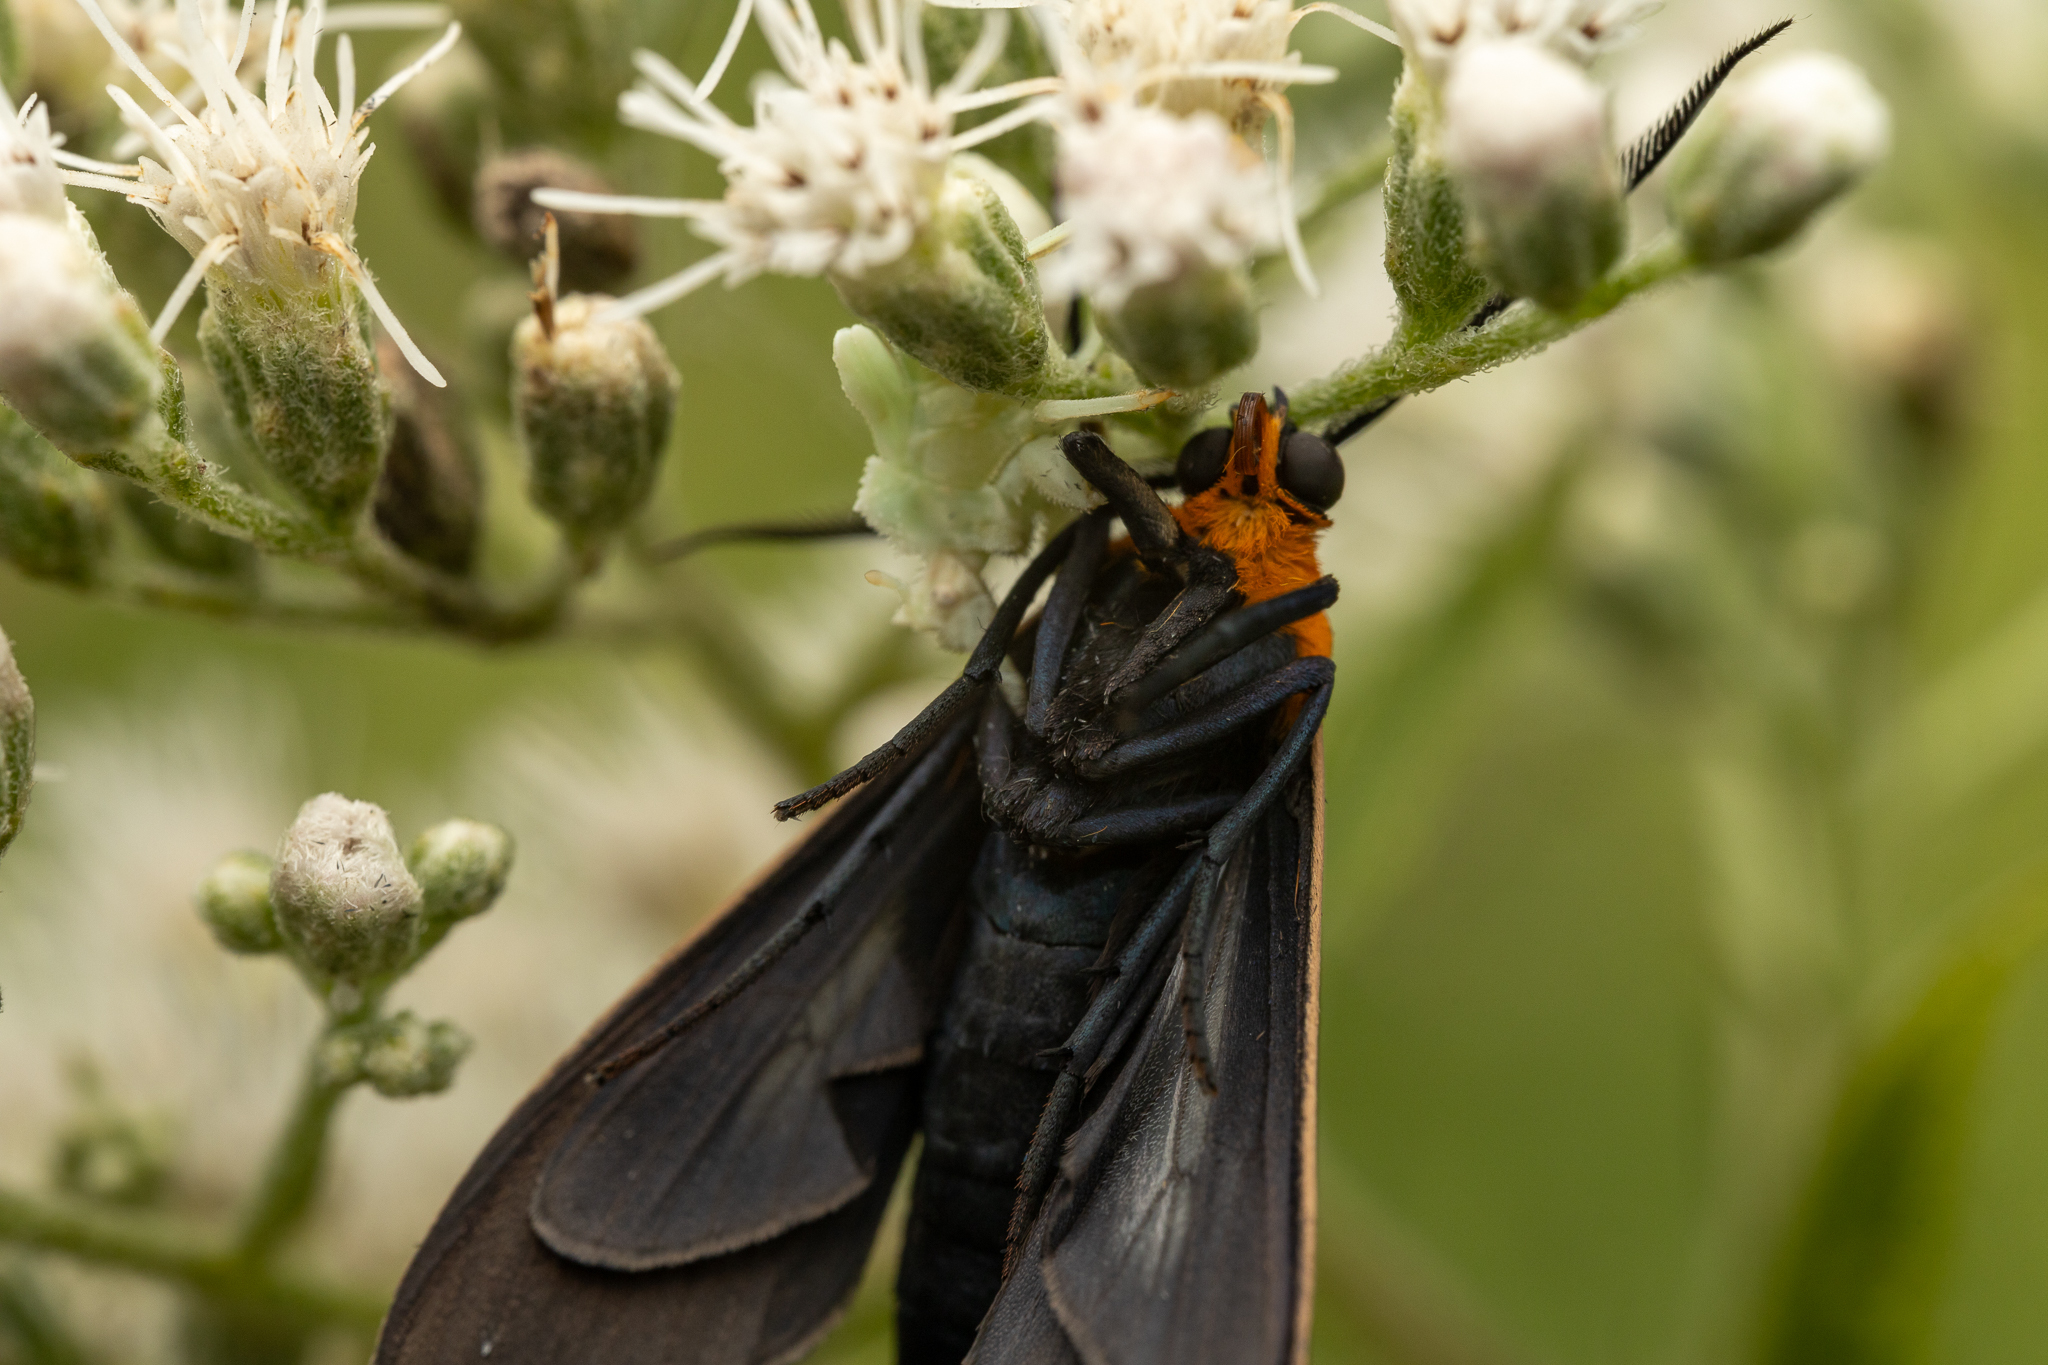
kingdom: Animalia
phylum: Arthropoda
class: Insecta
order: Lepidoptera
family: Erebidae
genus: Cisseps
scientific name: Cisseps fulvicollis
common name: Yellow-collared scape moth
